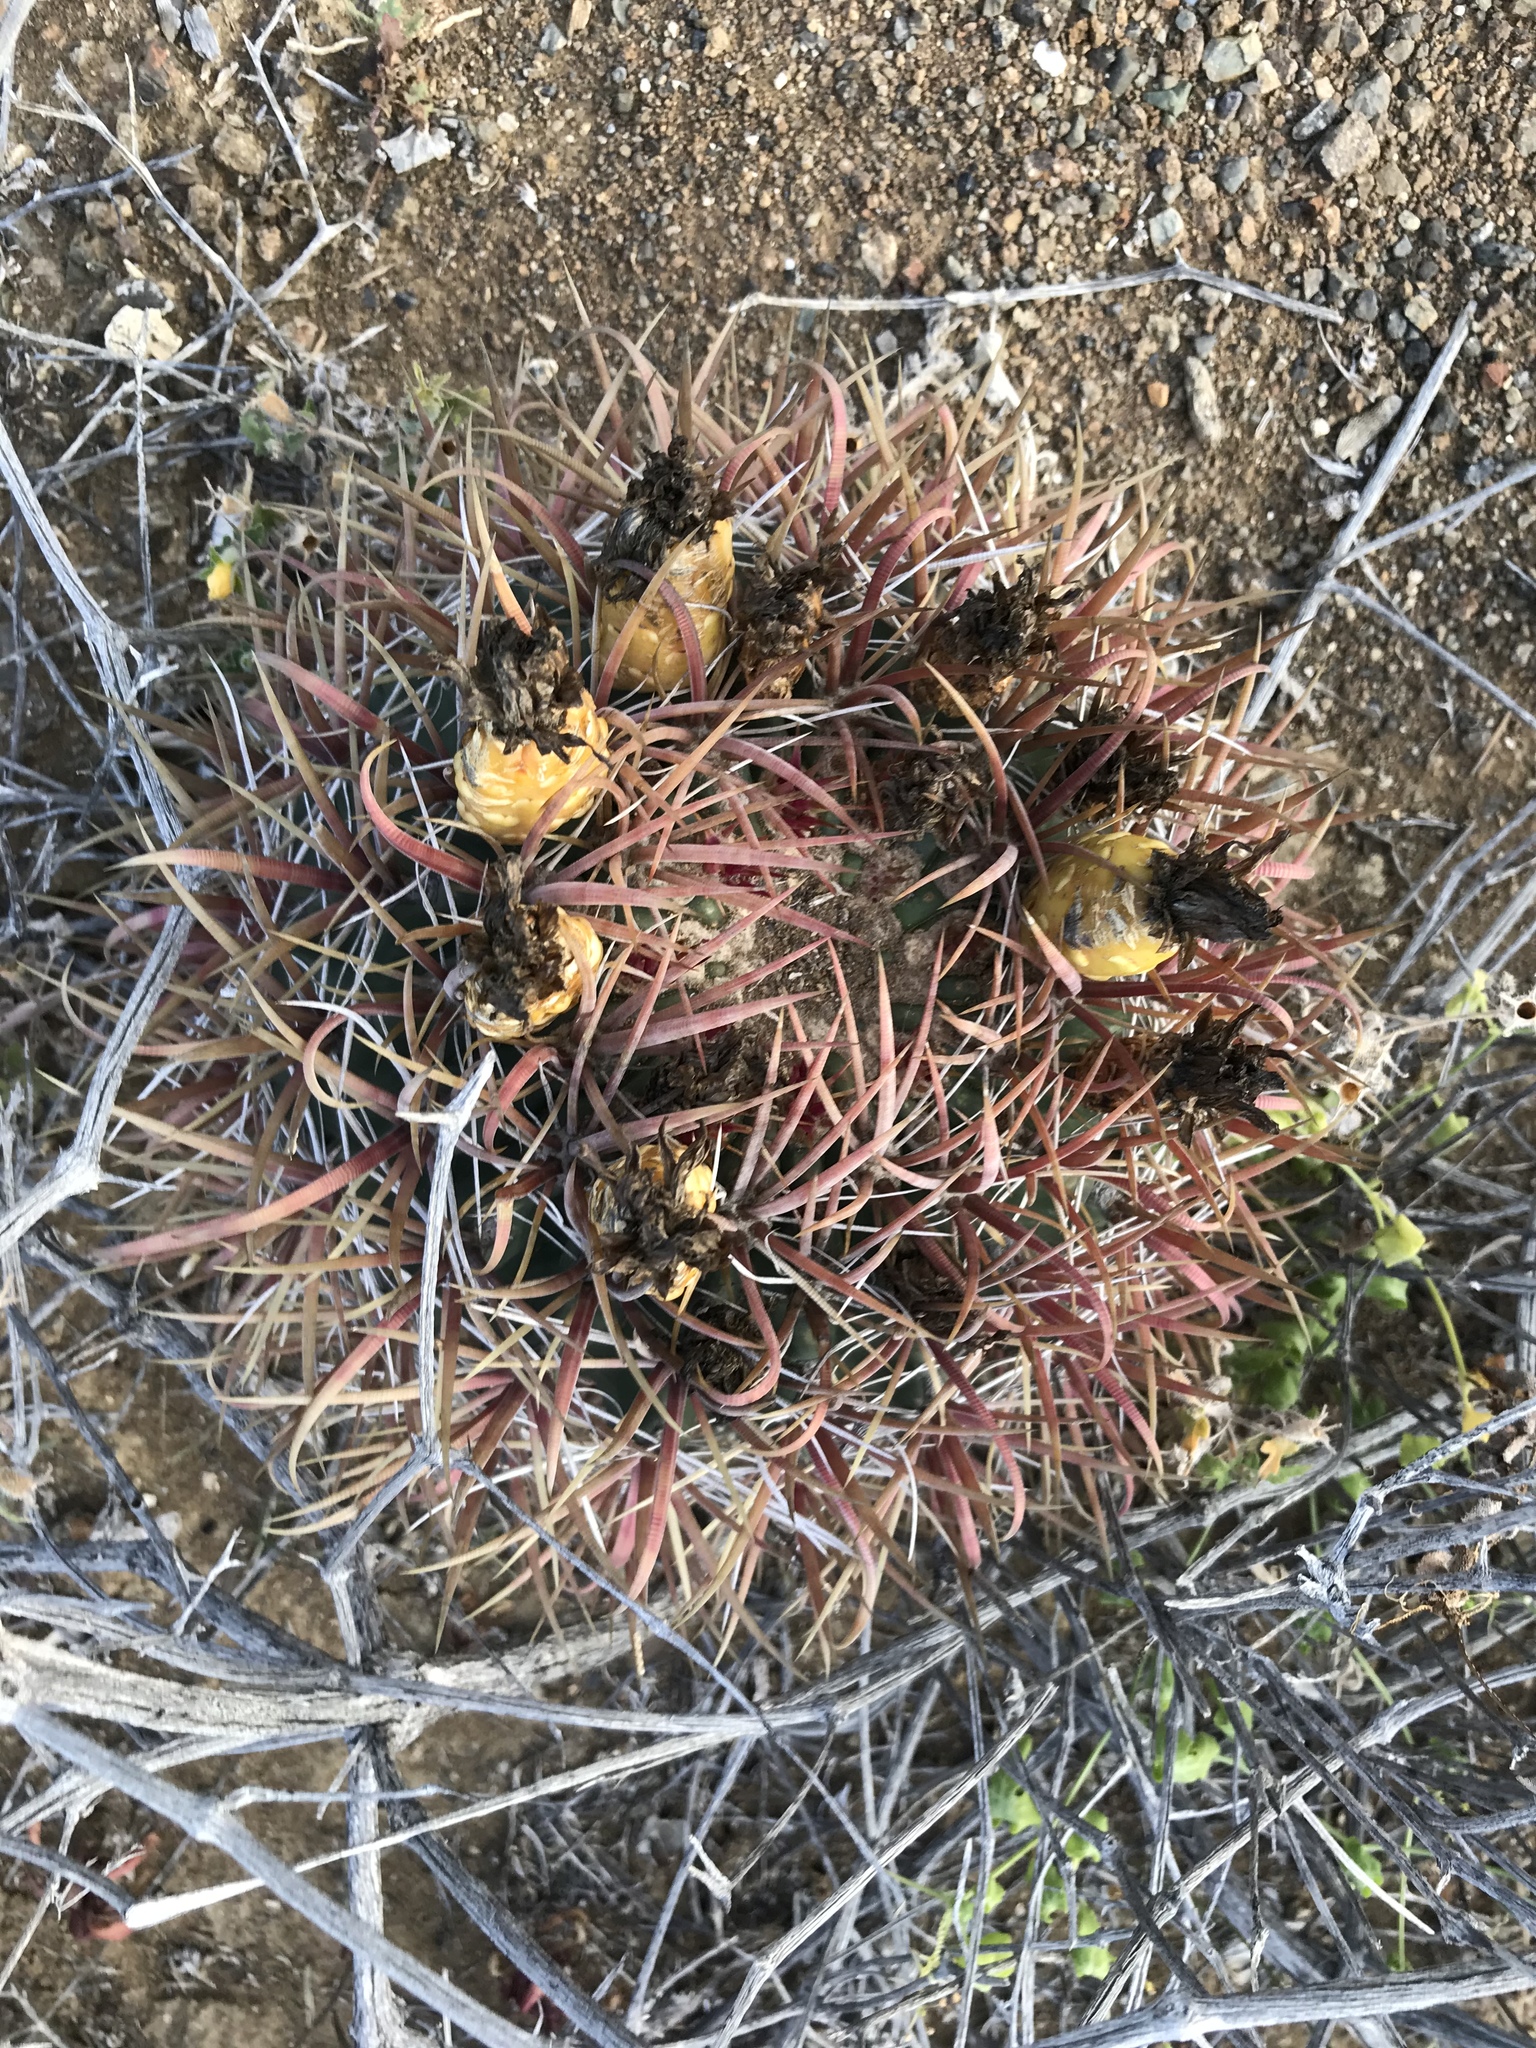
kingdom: Plantae
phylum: Tracheophyta
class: Magnoliopsida
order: Caryophyllales
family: Cactaceae
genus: Ferocactus
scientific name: Ferocactus chrysacanthus
